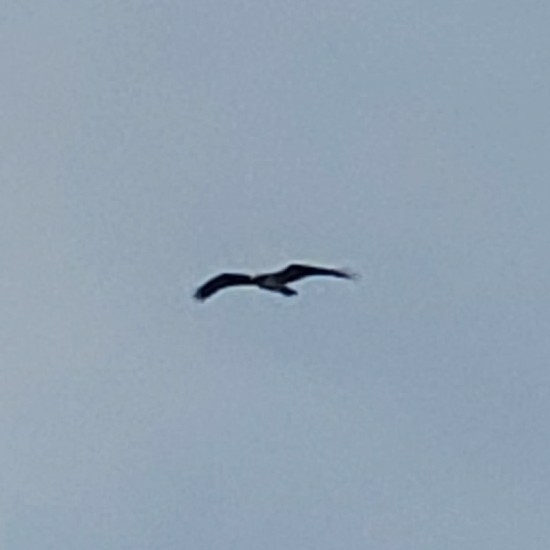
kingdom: Animalia
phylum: Chordata
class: Aves
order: Accipitriformes
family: Pandionidae
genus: Pandion
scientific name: Pandion haliaetus
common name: Osprey
